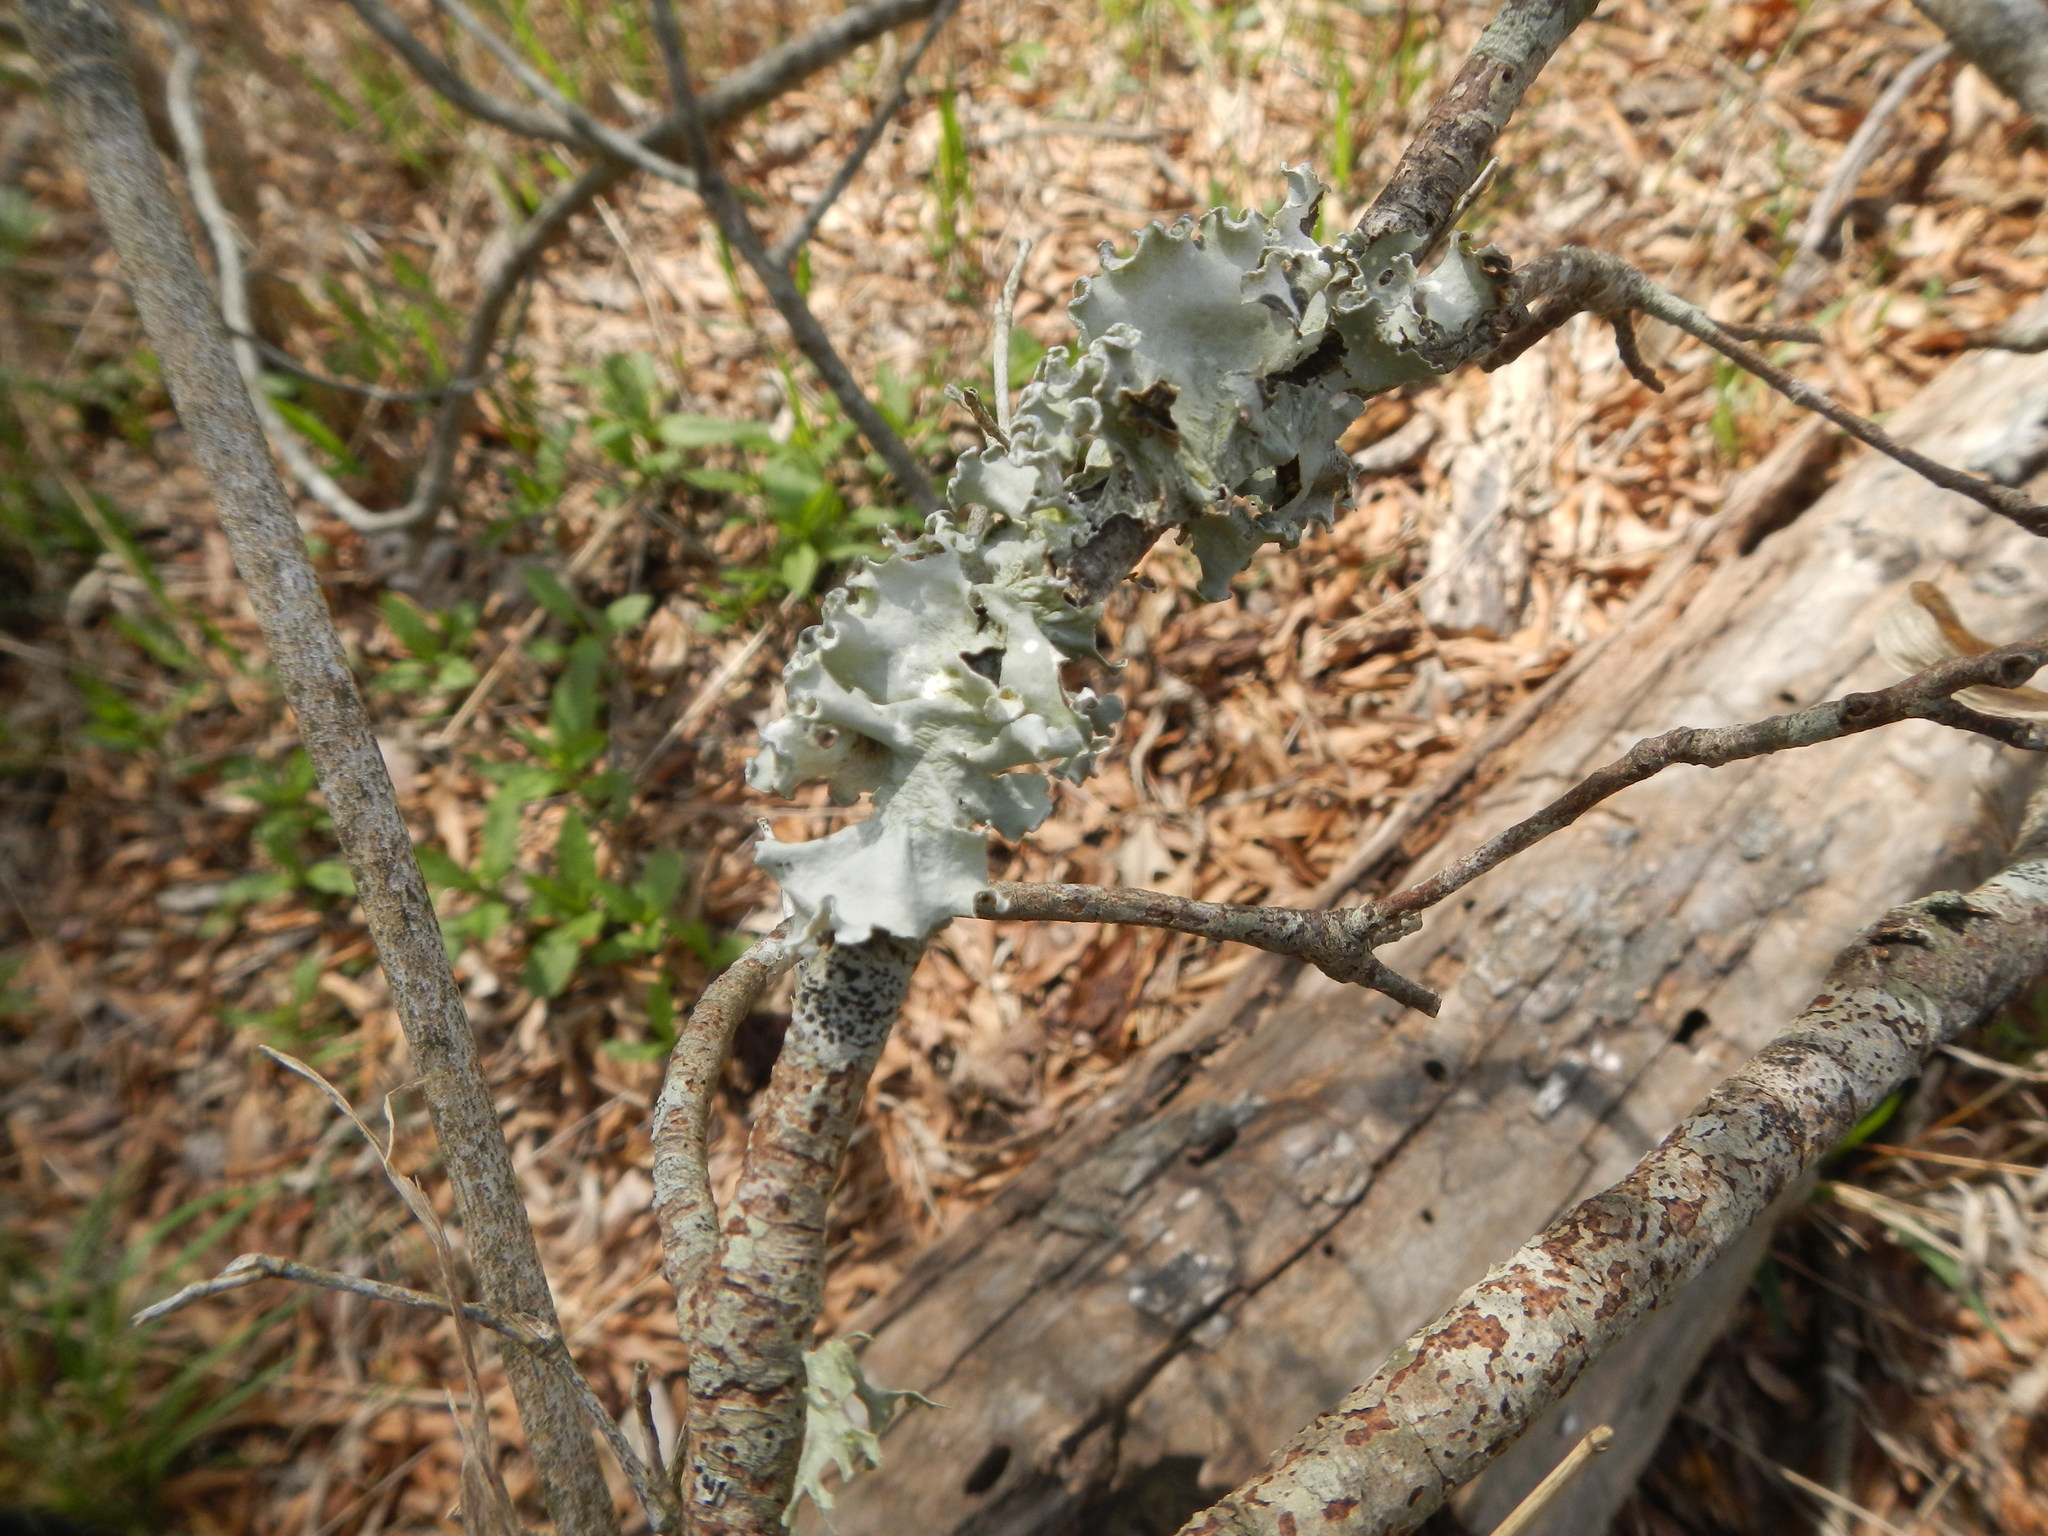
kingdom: Fungi
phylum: Ascomycota
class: Lecanoromycetes
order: Lecanorales
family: Parmeliaceae
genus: Flavoparmelia
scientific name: Flavoparmelia caperata
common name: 40-mile per hour lichen
